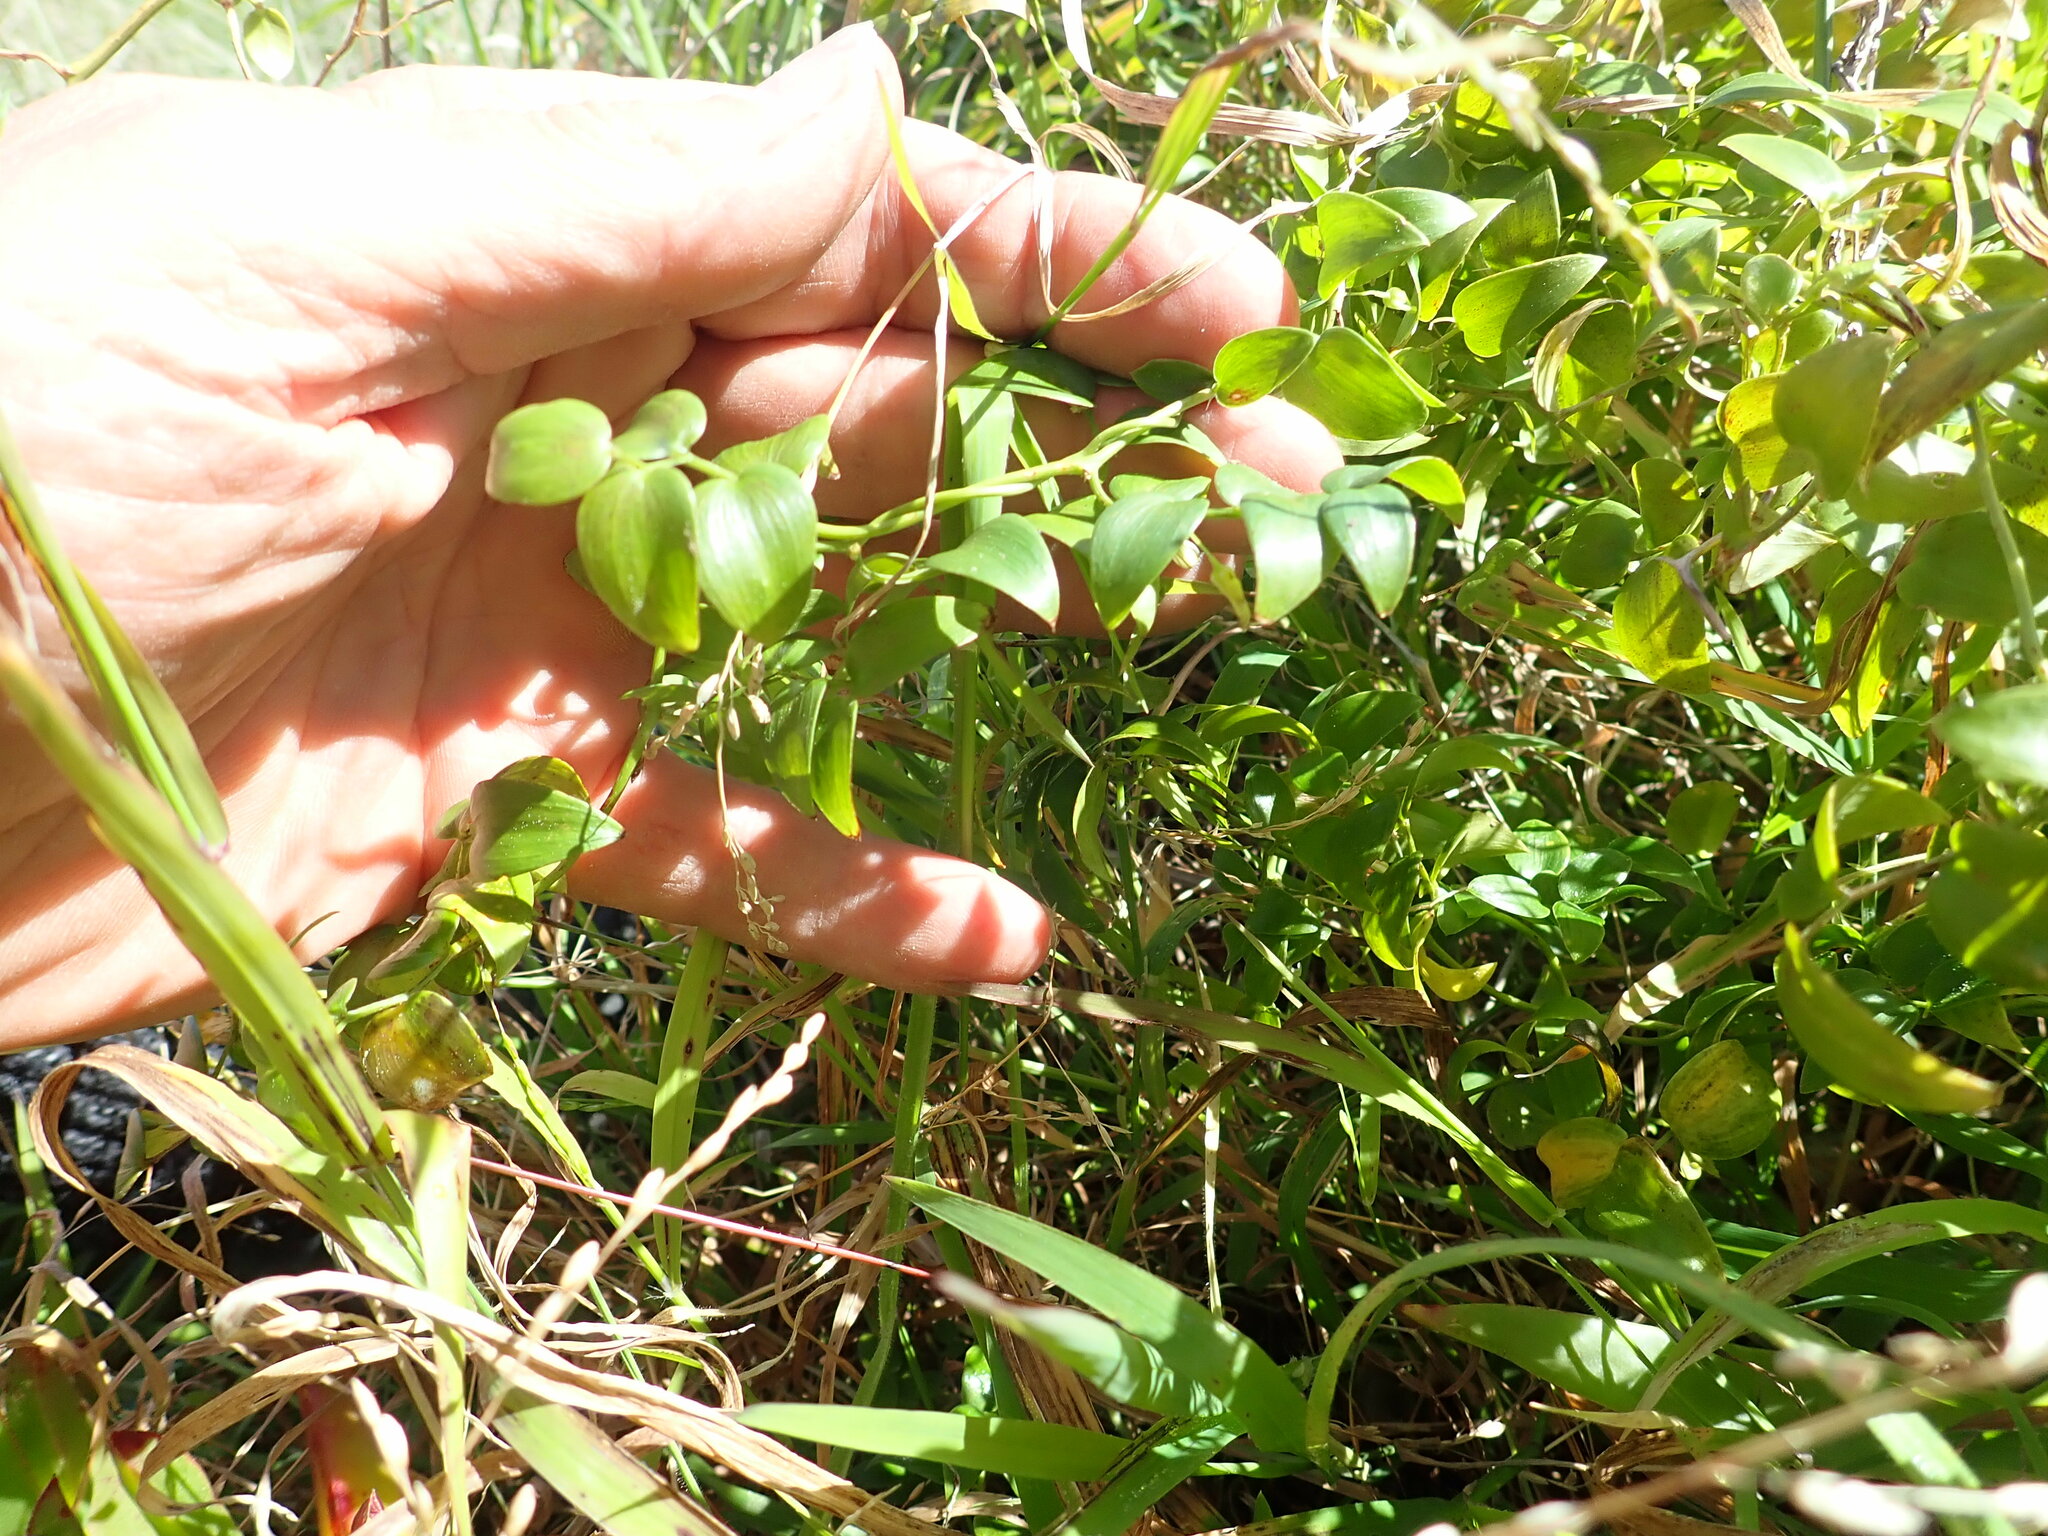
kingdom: Plantae
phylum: Tracheophyta
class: Liliopsida
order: Asparagales
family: Asparagaceae
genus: Asparagus
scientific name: Asparagus asparagoides
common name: African asparagus fern
